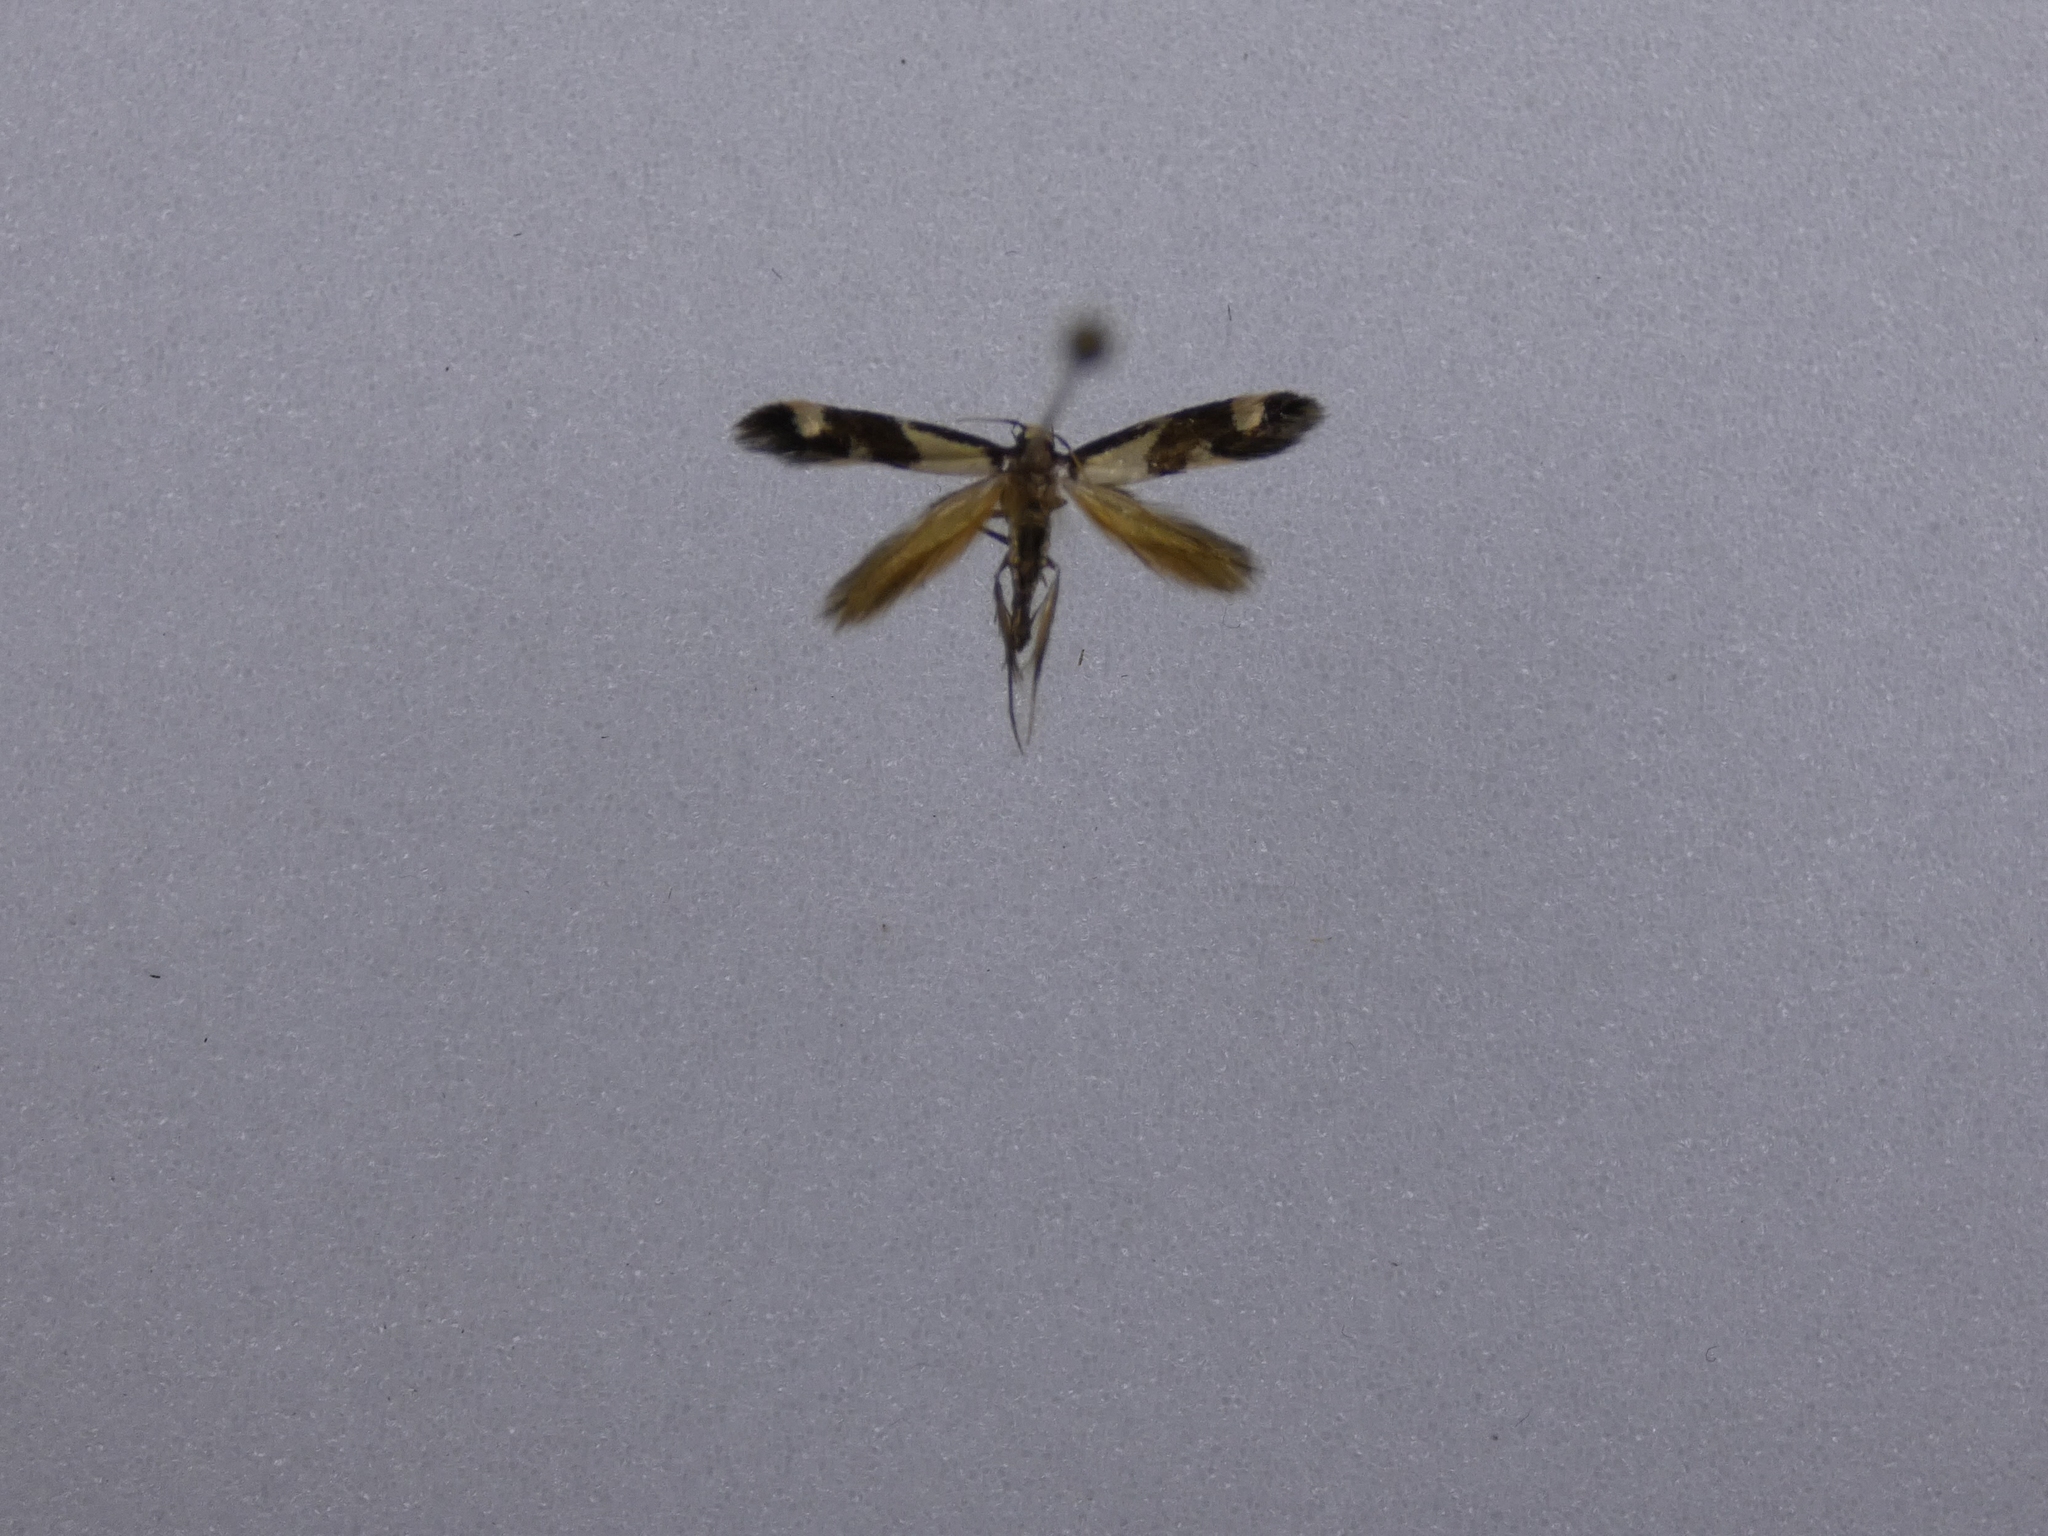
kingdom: Animalia
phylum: Arthropoda
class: Insecta
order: Lepidoptera
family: Tineidae
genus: Opogona
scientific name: Opogona comptella
